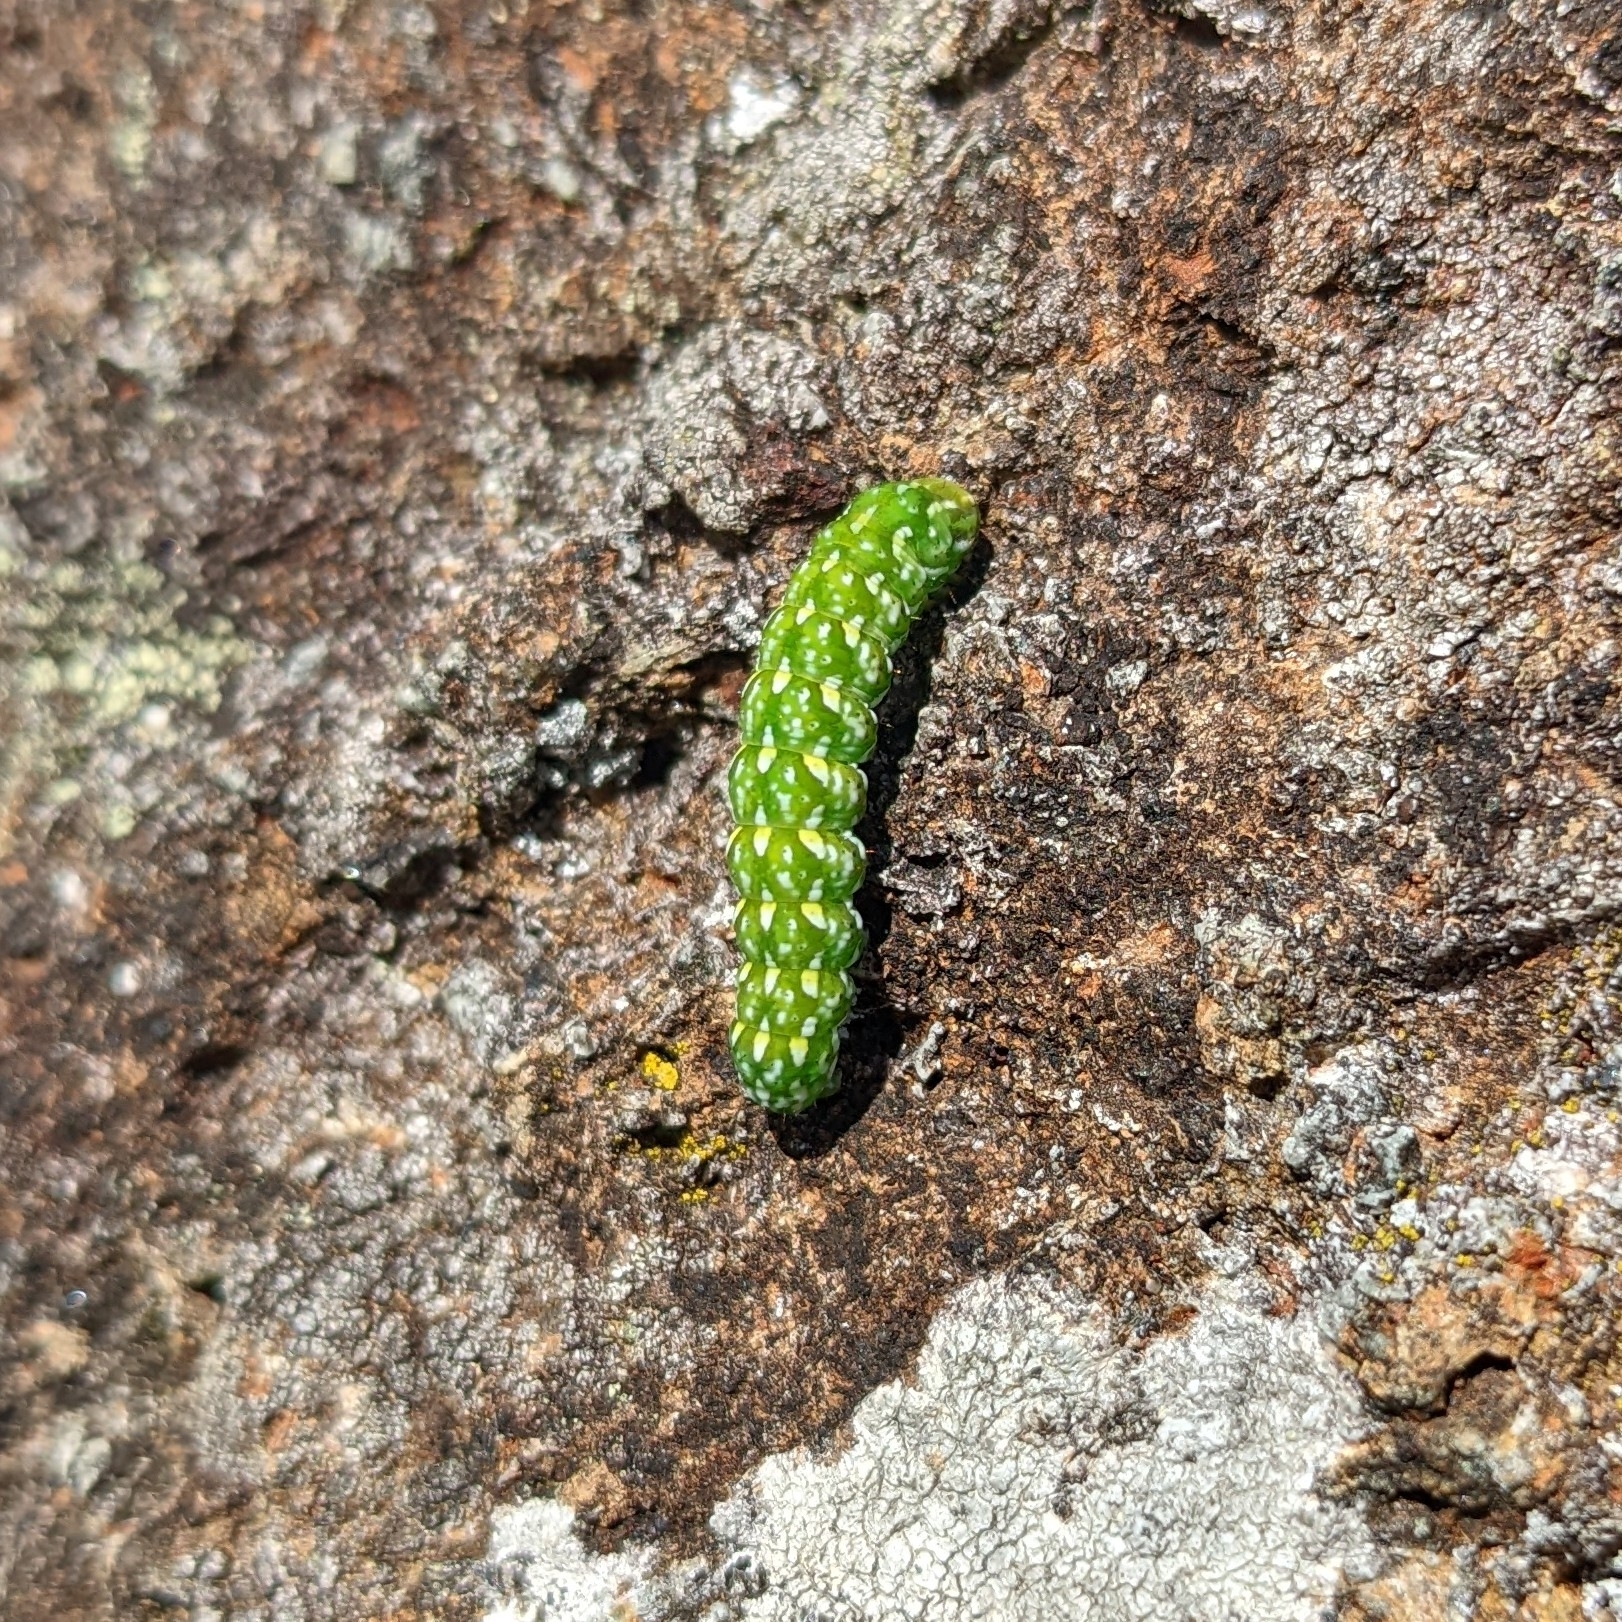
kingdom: Animalia
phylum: Arthropoda
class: Insecta
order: Lepidoptera
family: Noctuidae
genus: Anarta
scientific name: Anarta myrtilli
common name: Beautiful yellow underwing
